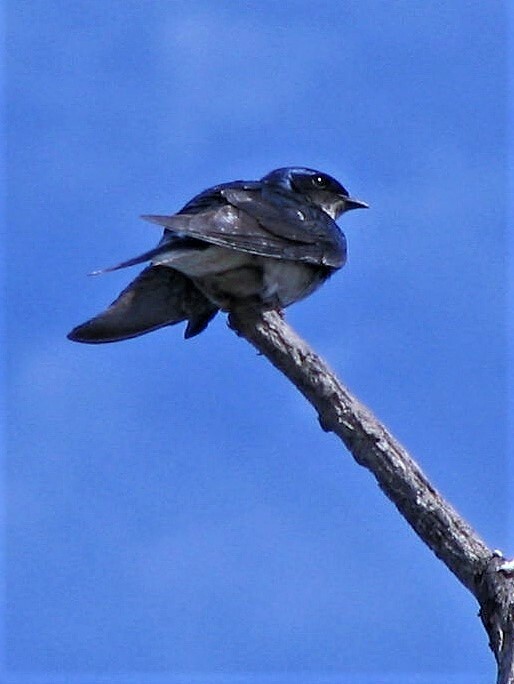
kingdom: Animalia
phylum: Chordata
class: Aves
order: Passeriformes
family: Hirundinidae
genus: Progne
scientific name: Progne chalybea
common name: Grey-breasted martin
